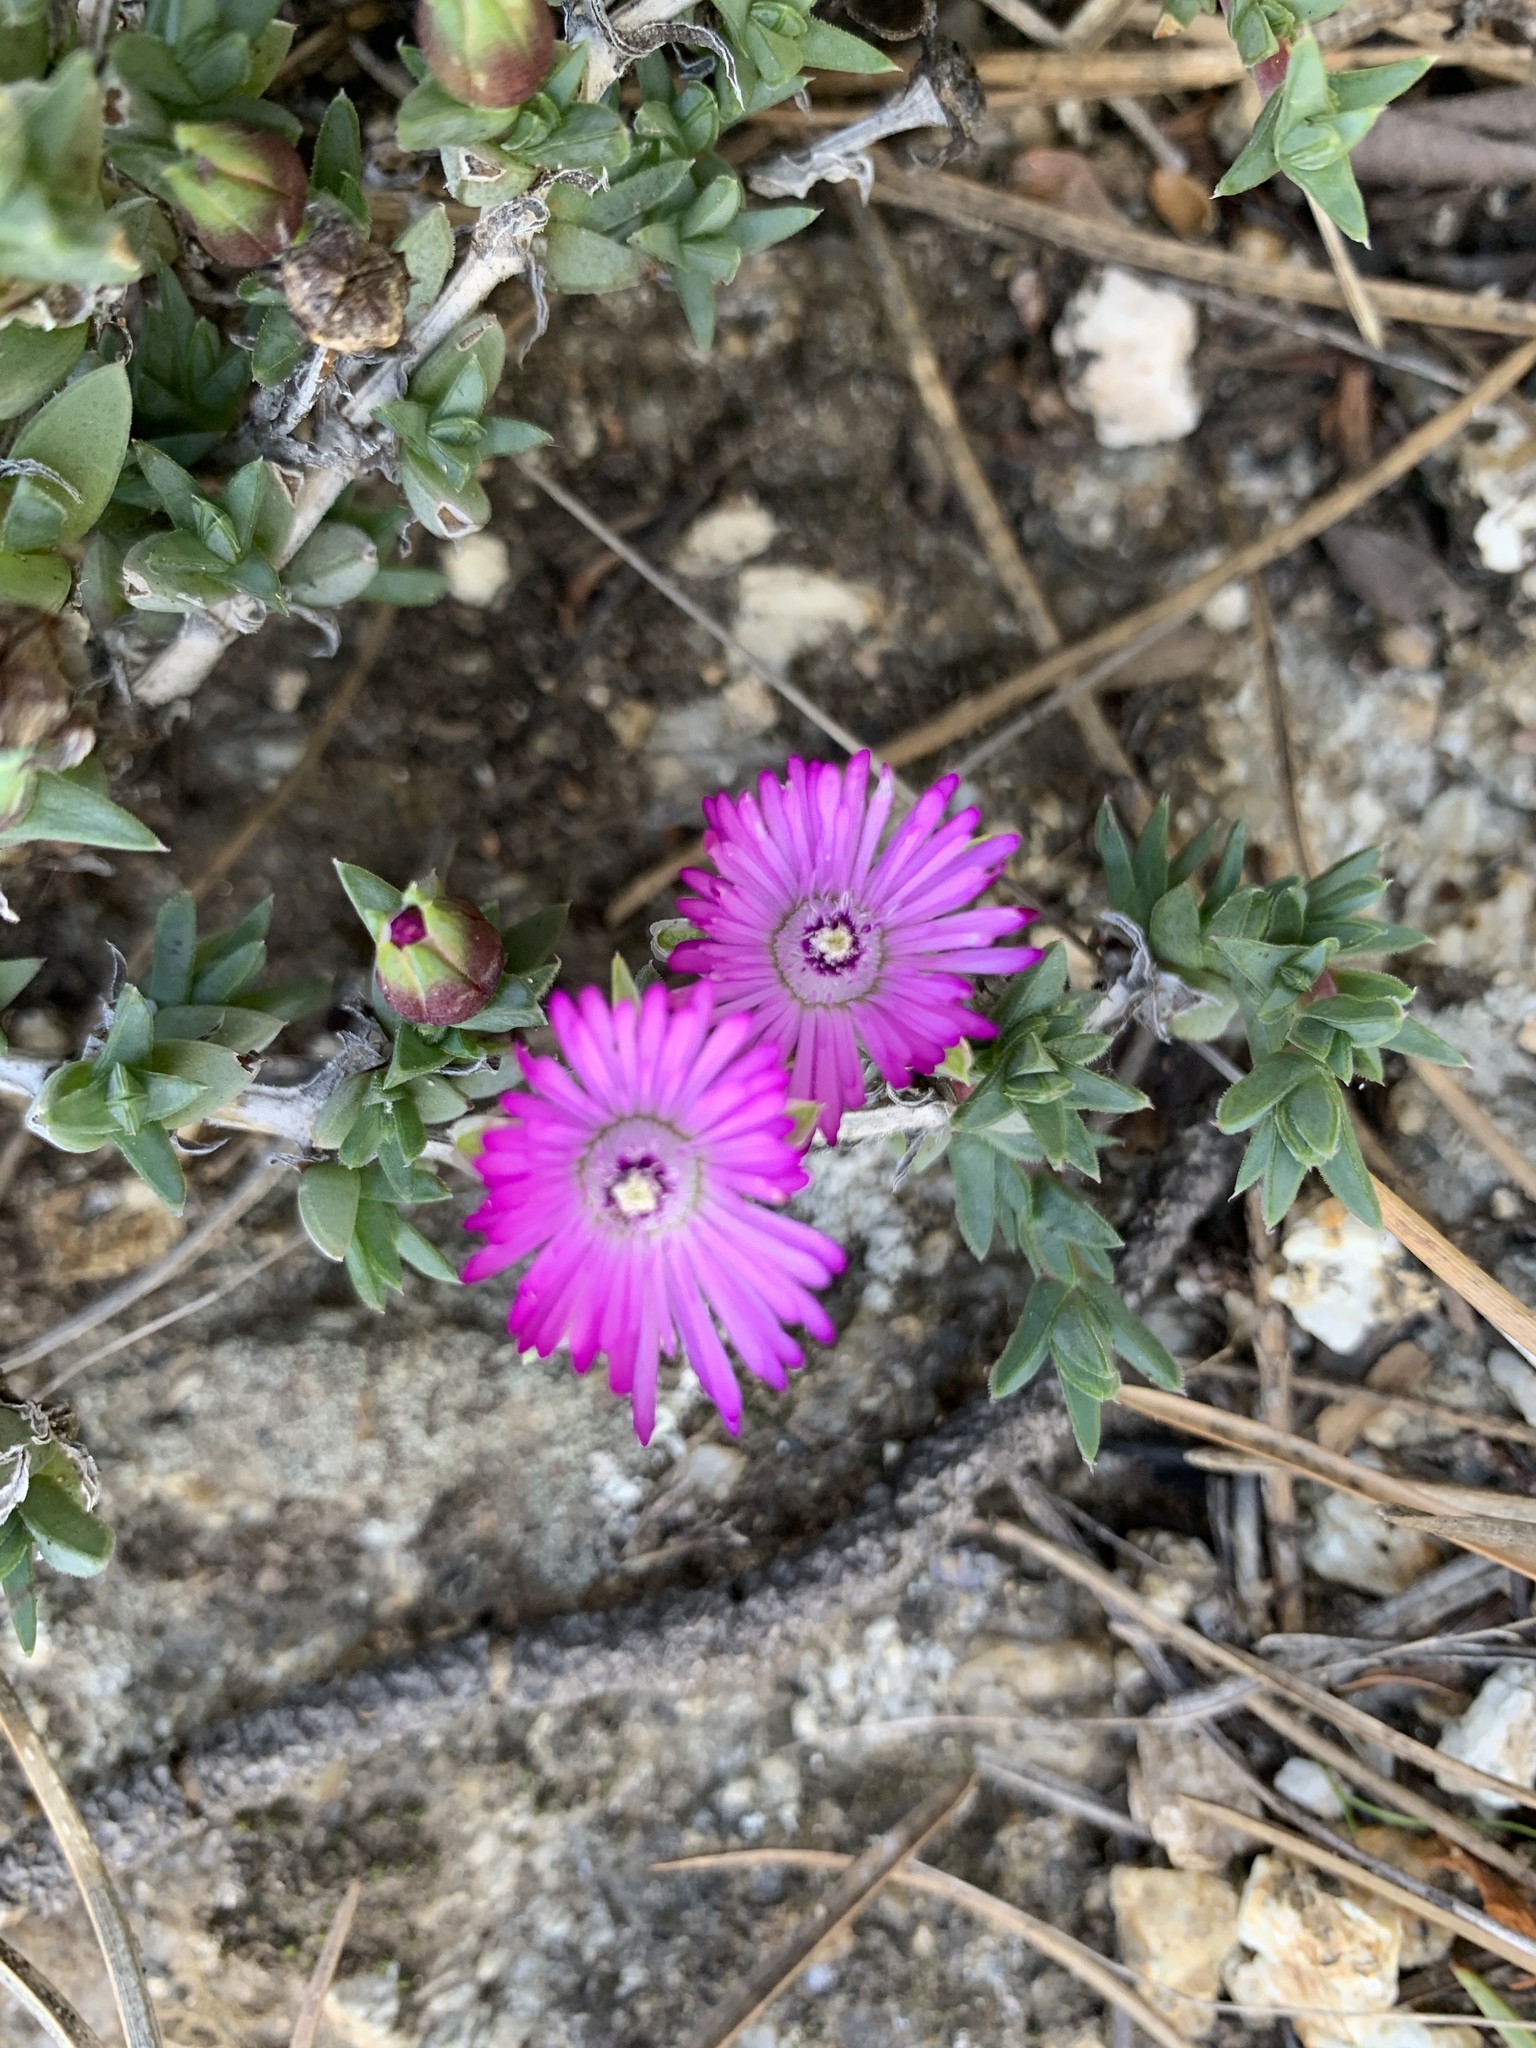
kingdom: Plantae
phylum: Tracheophyta
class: Magnoliopsida
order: Caryophyllales
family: Aizoaceae
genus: Antimima
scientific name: Antimima aristulata
